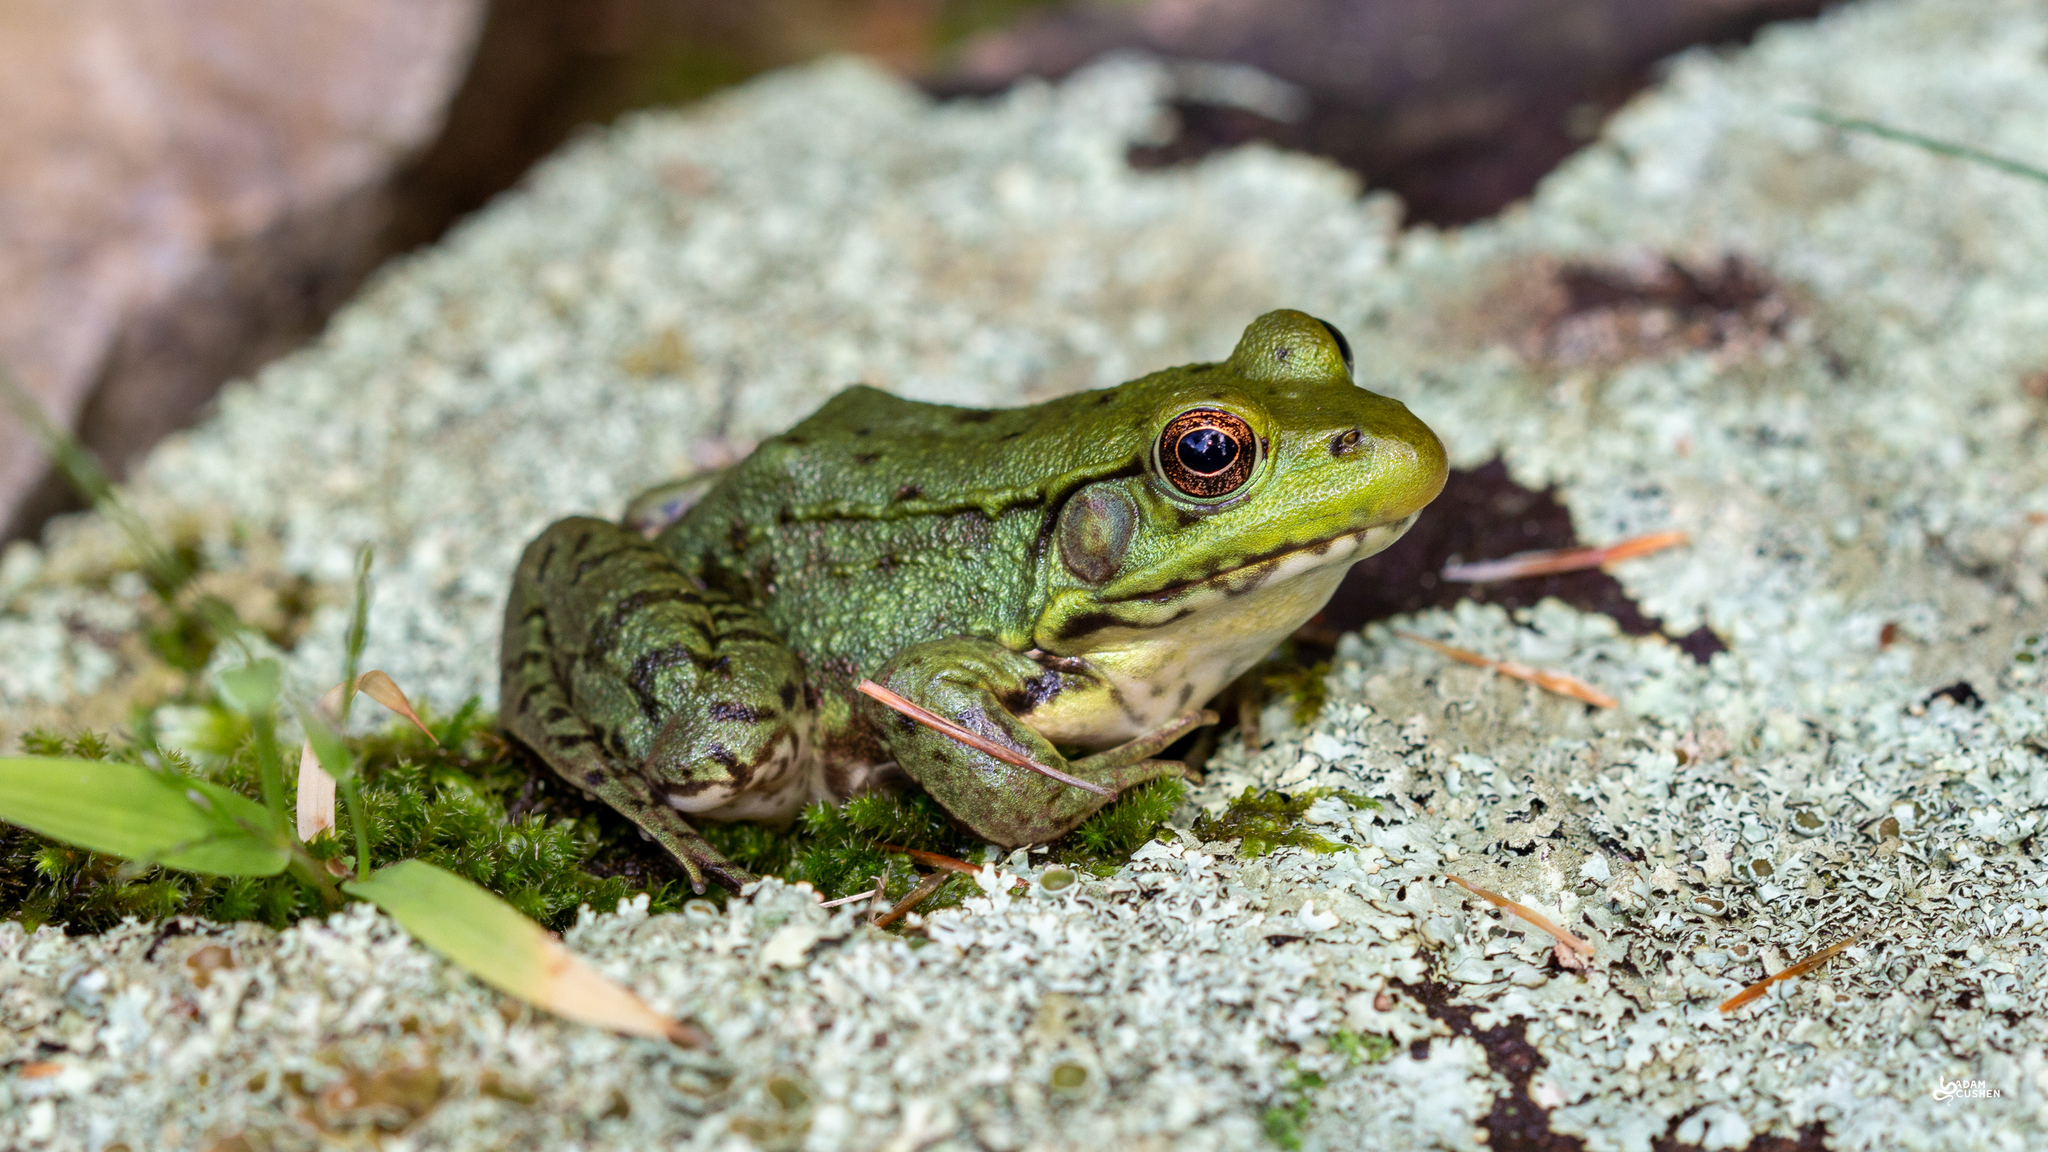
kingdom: Animalia
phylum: Chordata
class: Amphibia
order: Anura
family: Ranidae
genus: Lithobates
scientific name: Lithobates clamitans
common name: Green frog
